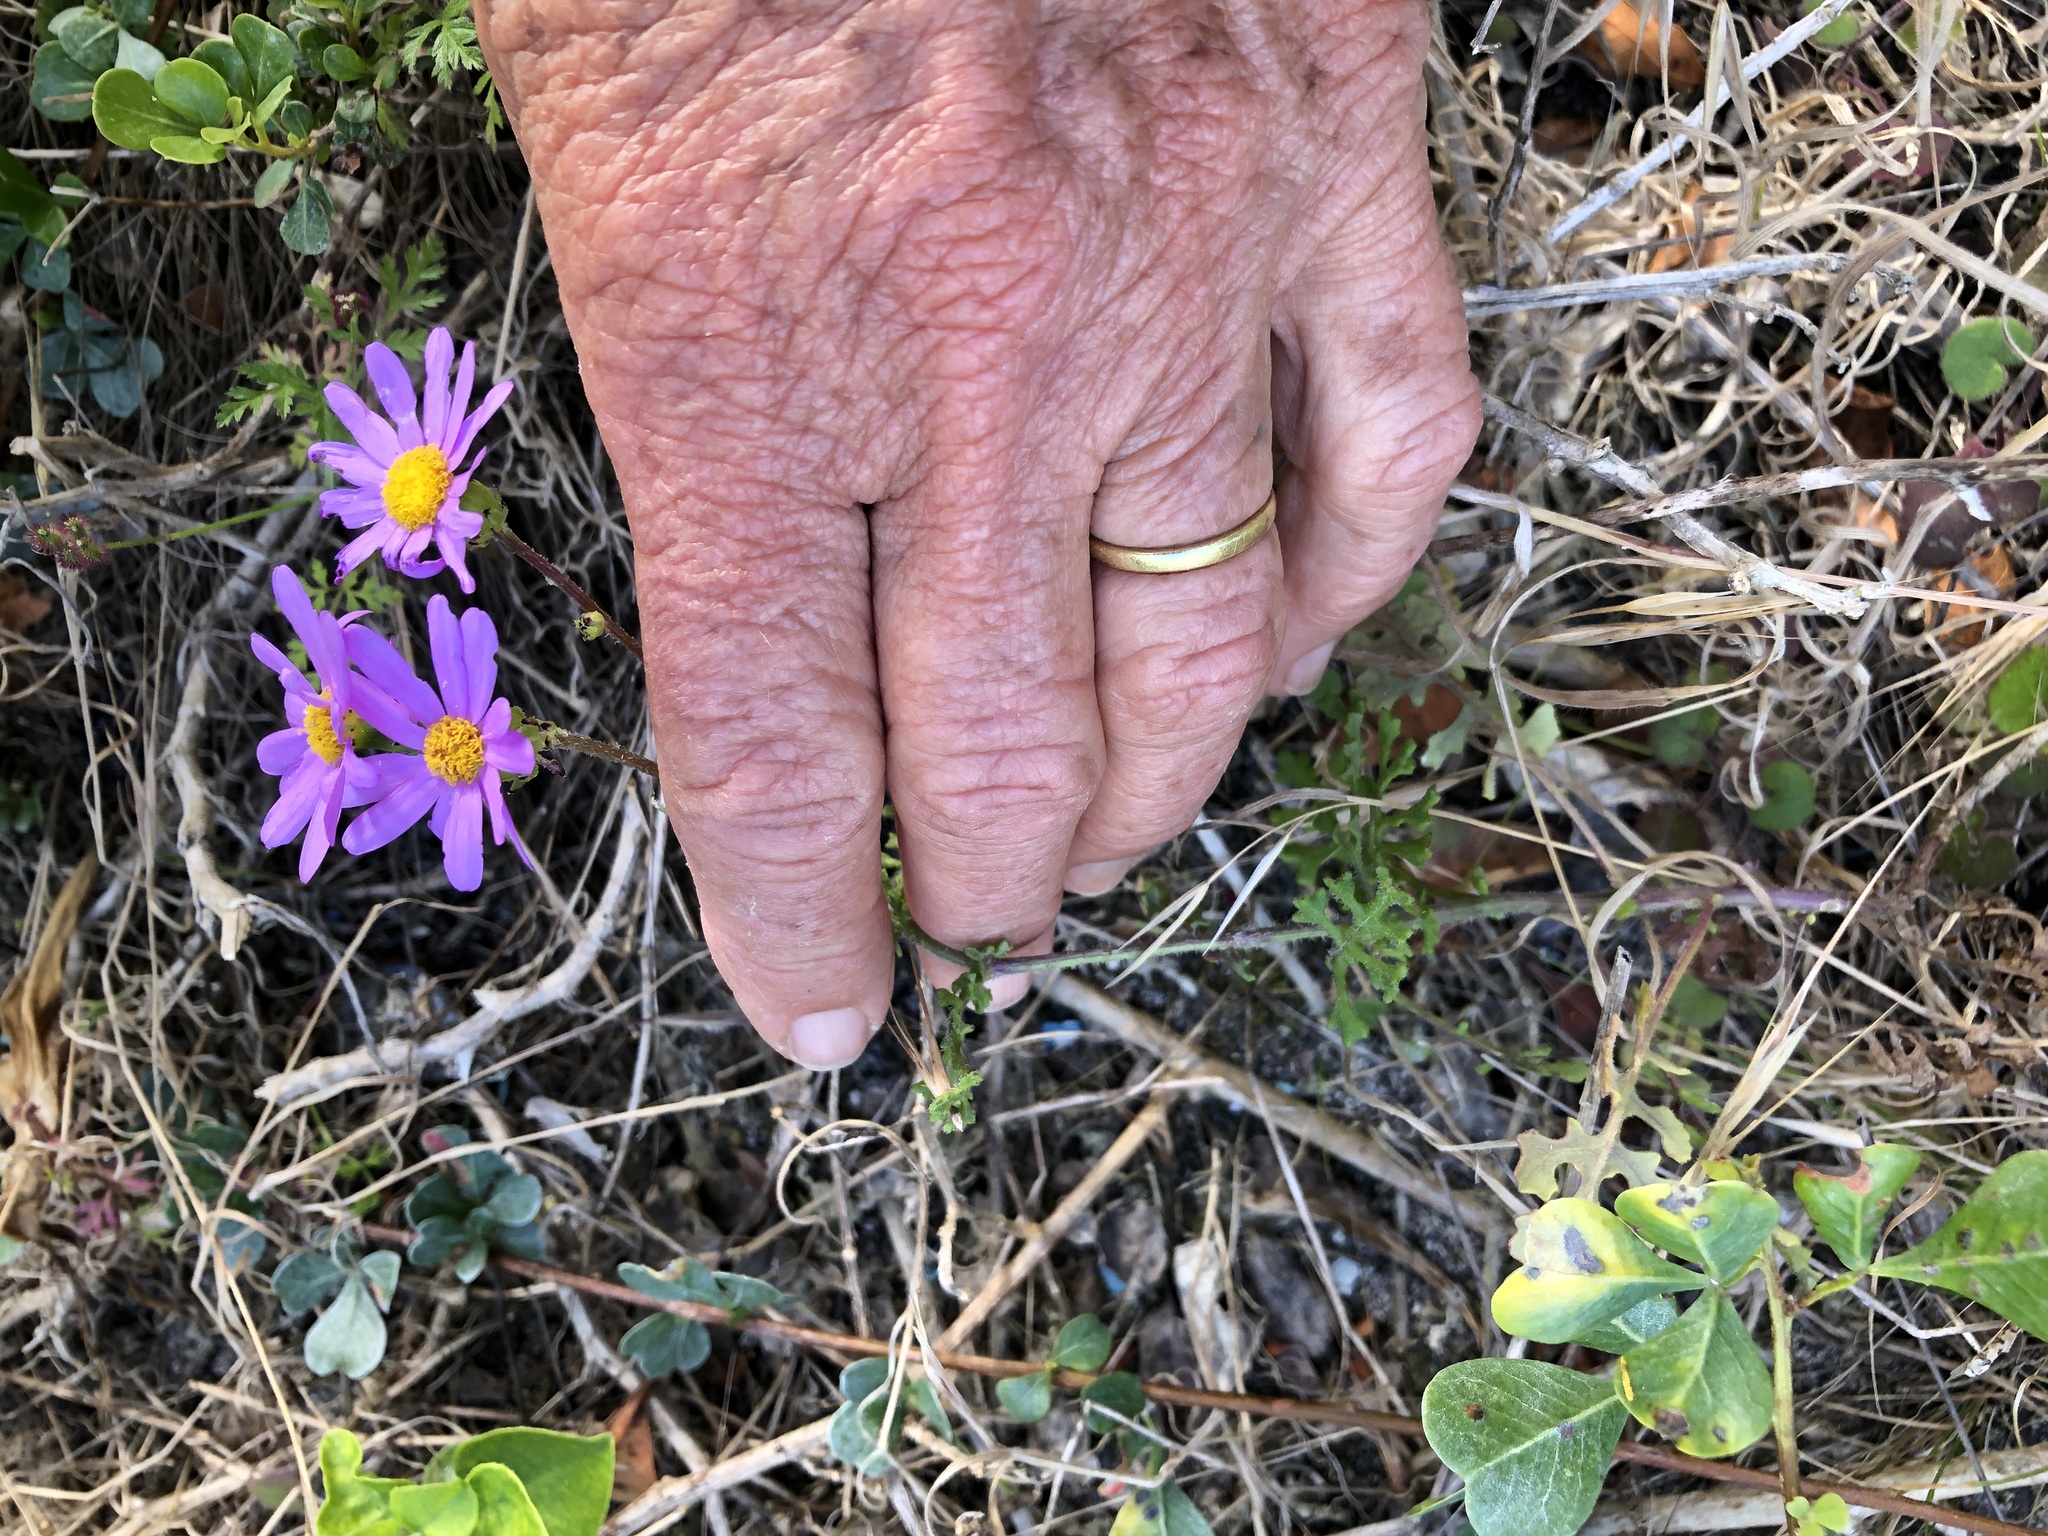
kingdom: Plantae
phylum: Tracheophyta
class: Magnoliopsida
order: Asterales
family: Asteraceae
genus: Senecio
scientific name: Senecio arenarius
